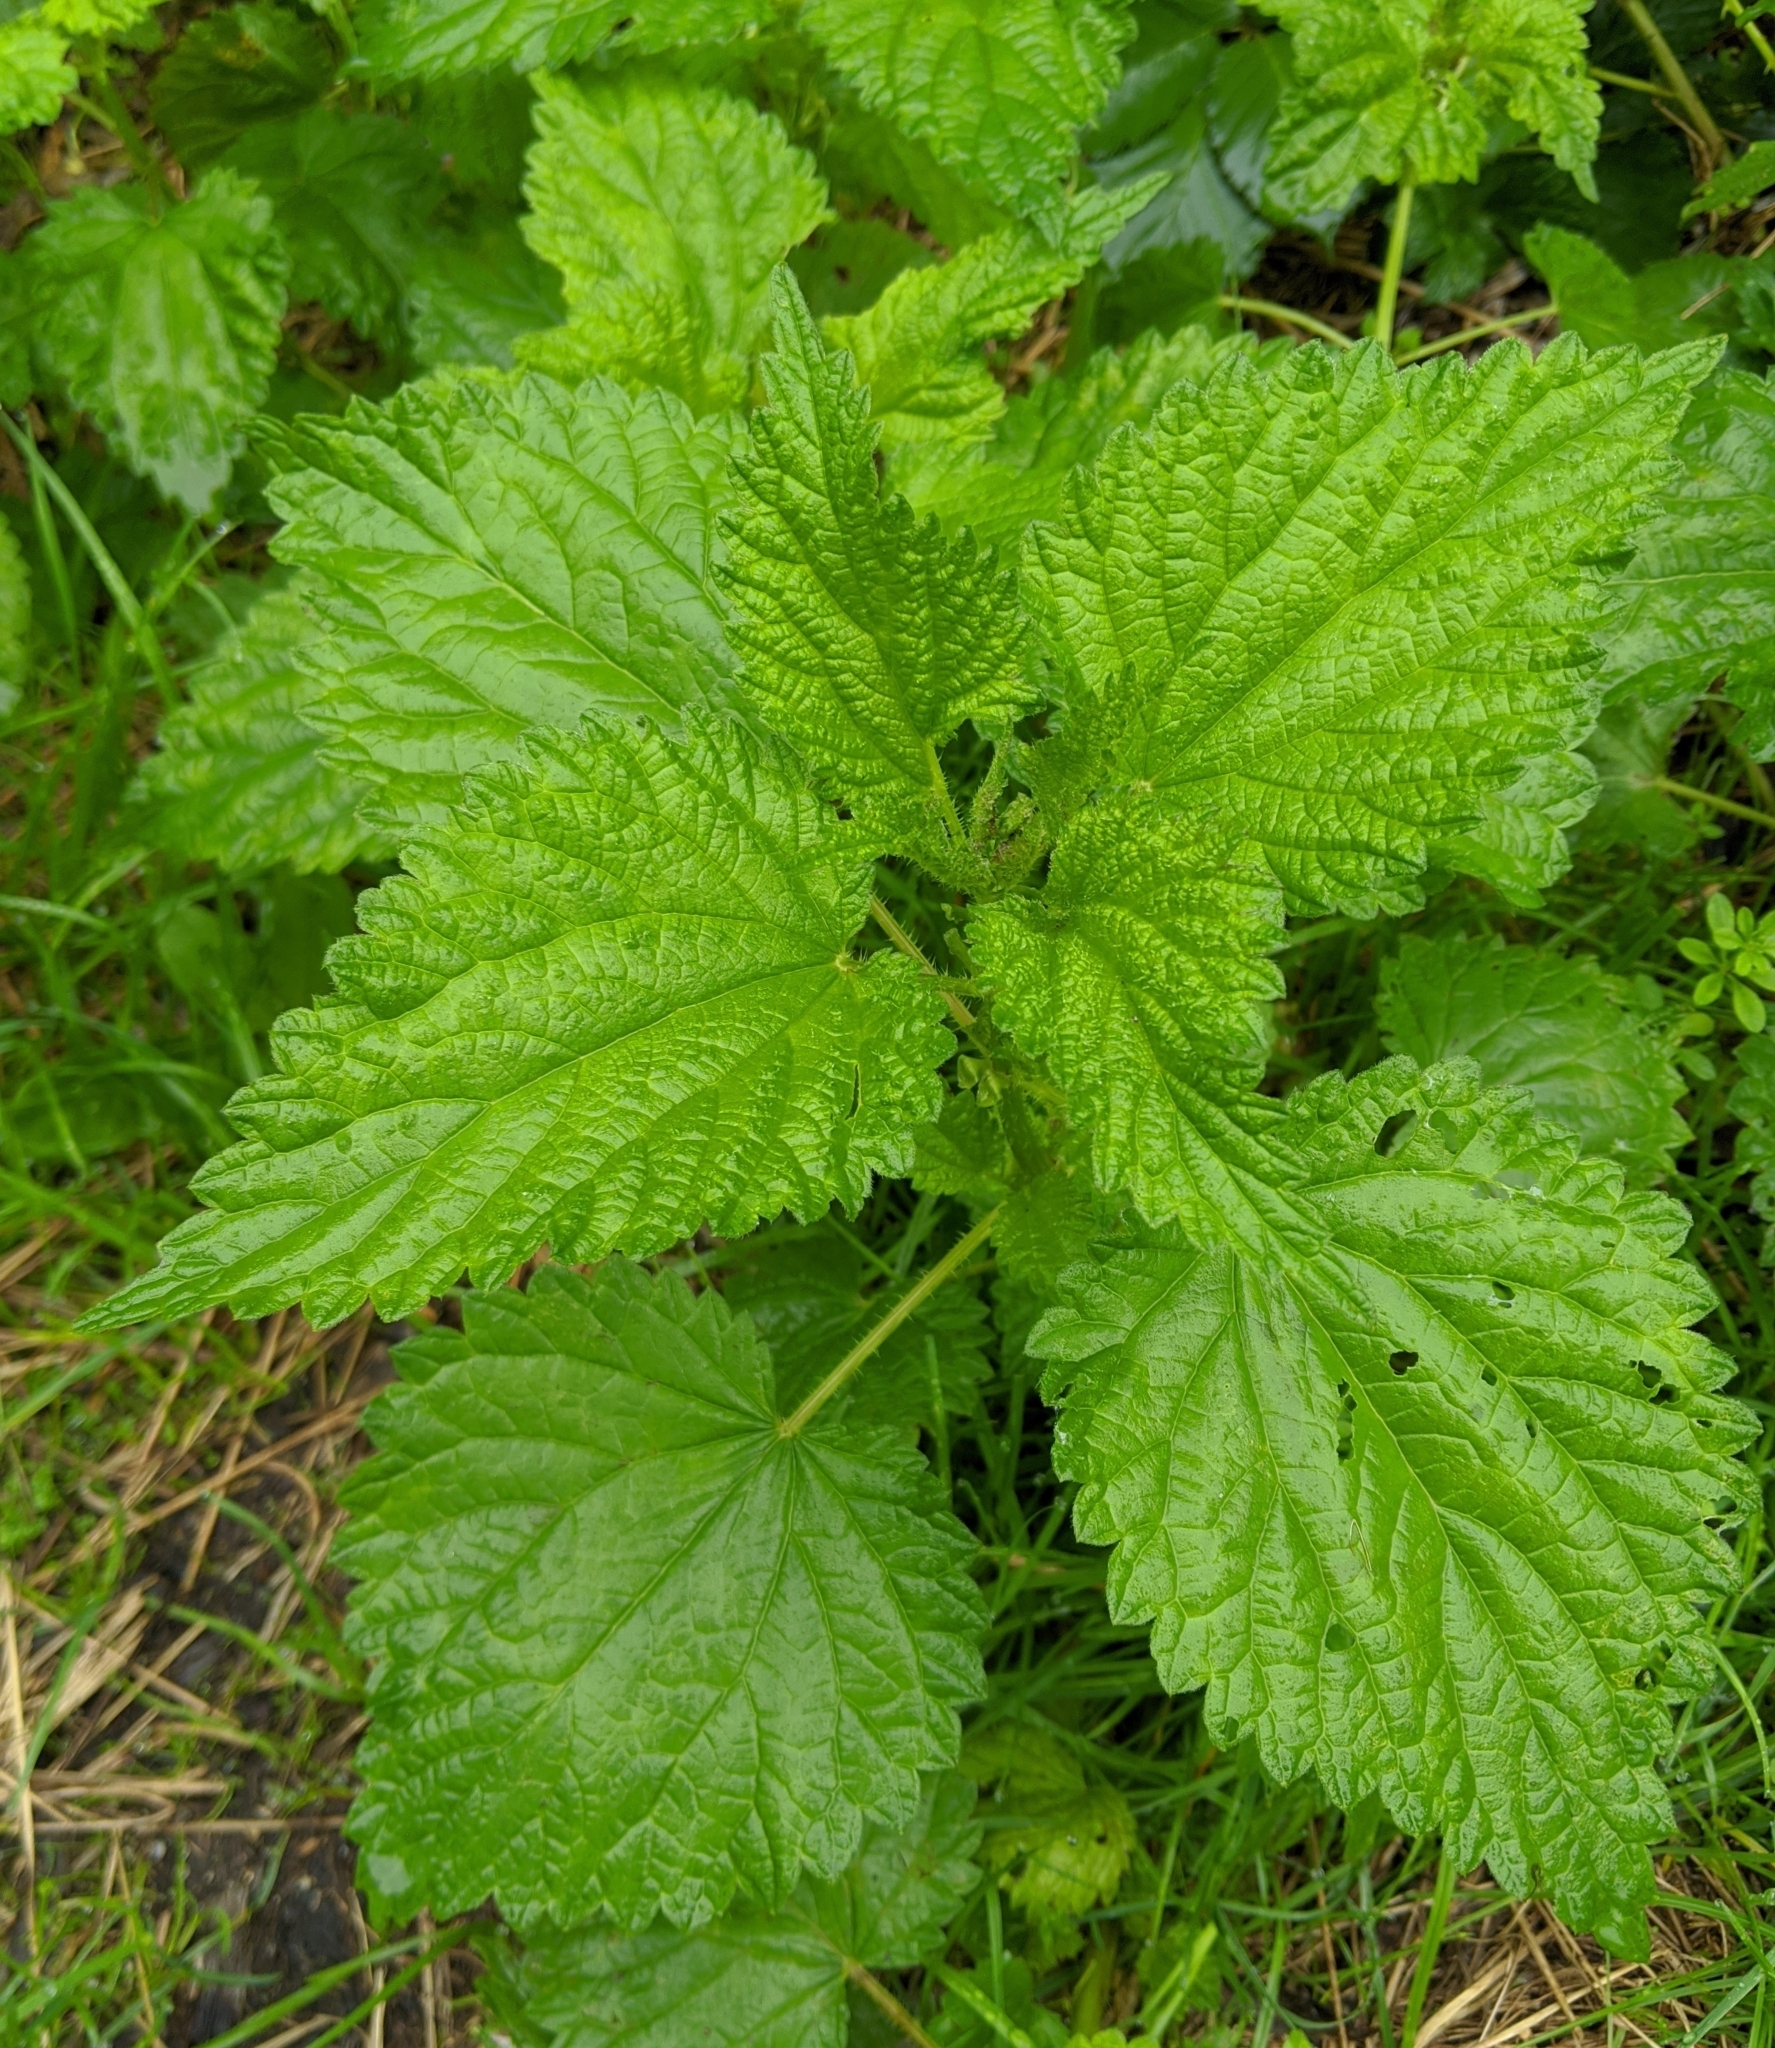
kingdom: Plantae
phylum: Tracheophyta
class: Magnoliopsida
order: Rosales
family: Urticaceae
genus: Urtica
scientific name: Urtica dioica
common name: Common nettle
